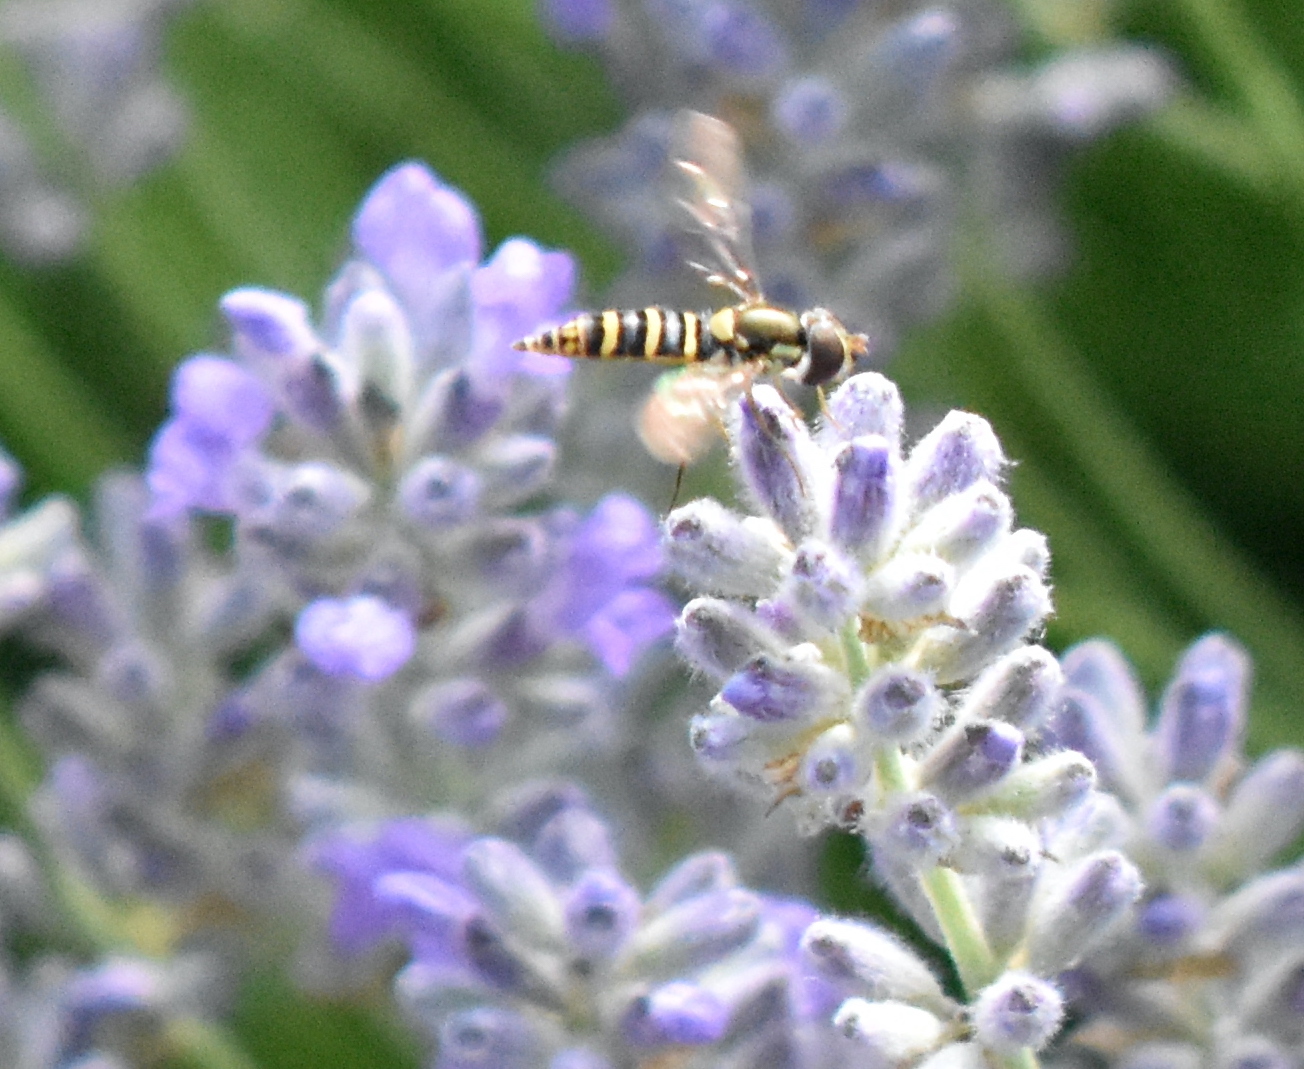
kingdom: Animalia
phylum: Arthropoda
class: Insecta
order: Diptera
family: Syrphidae
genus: Fazia
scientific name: Fazia micrura
